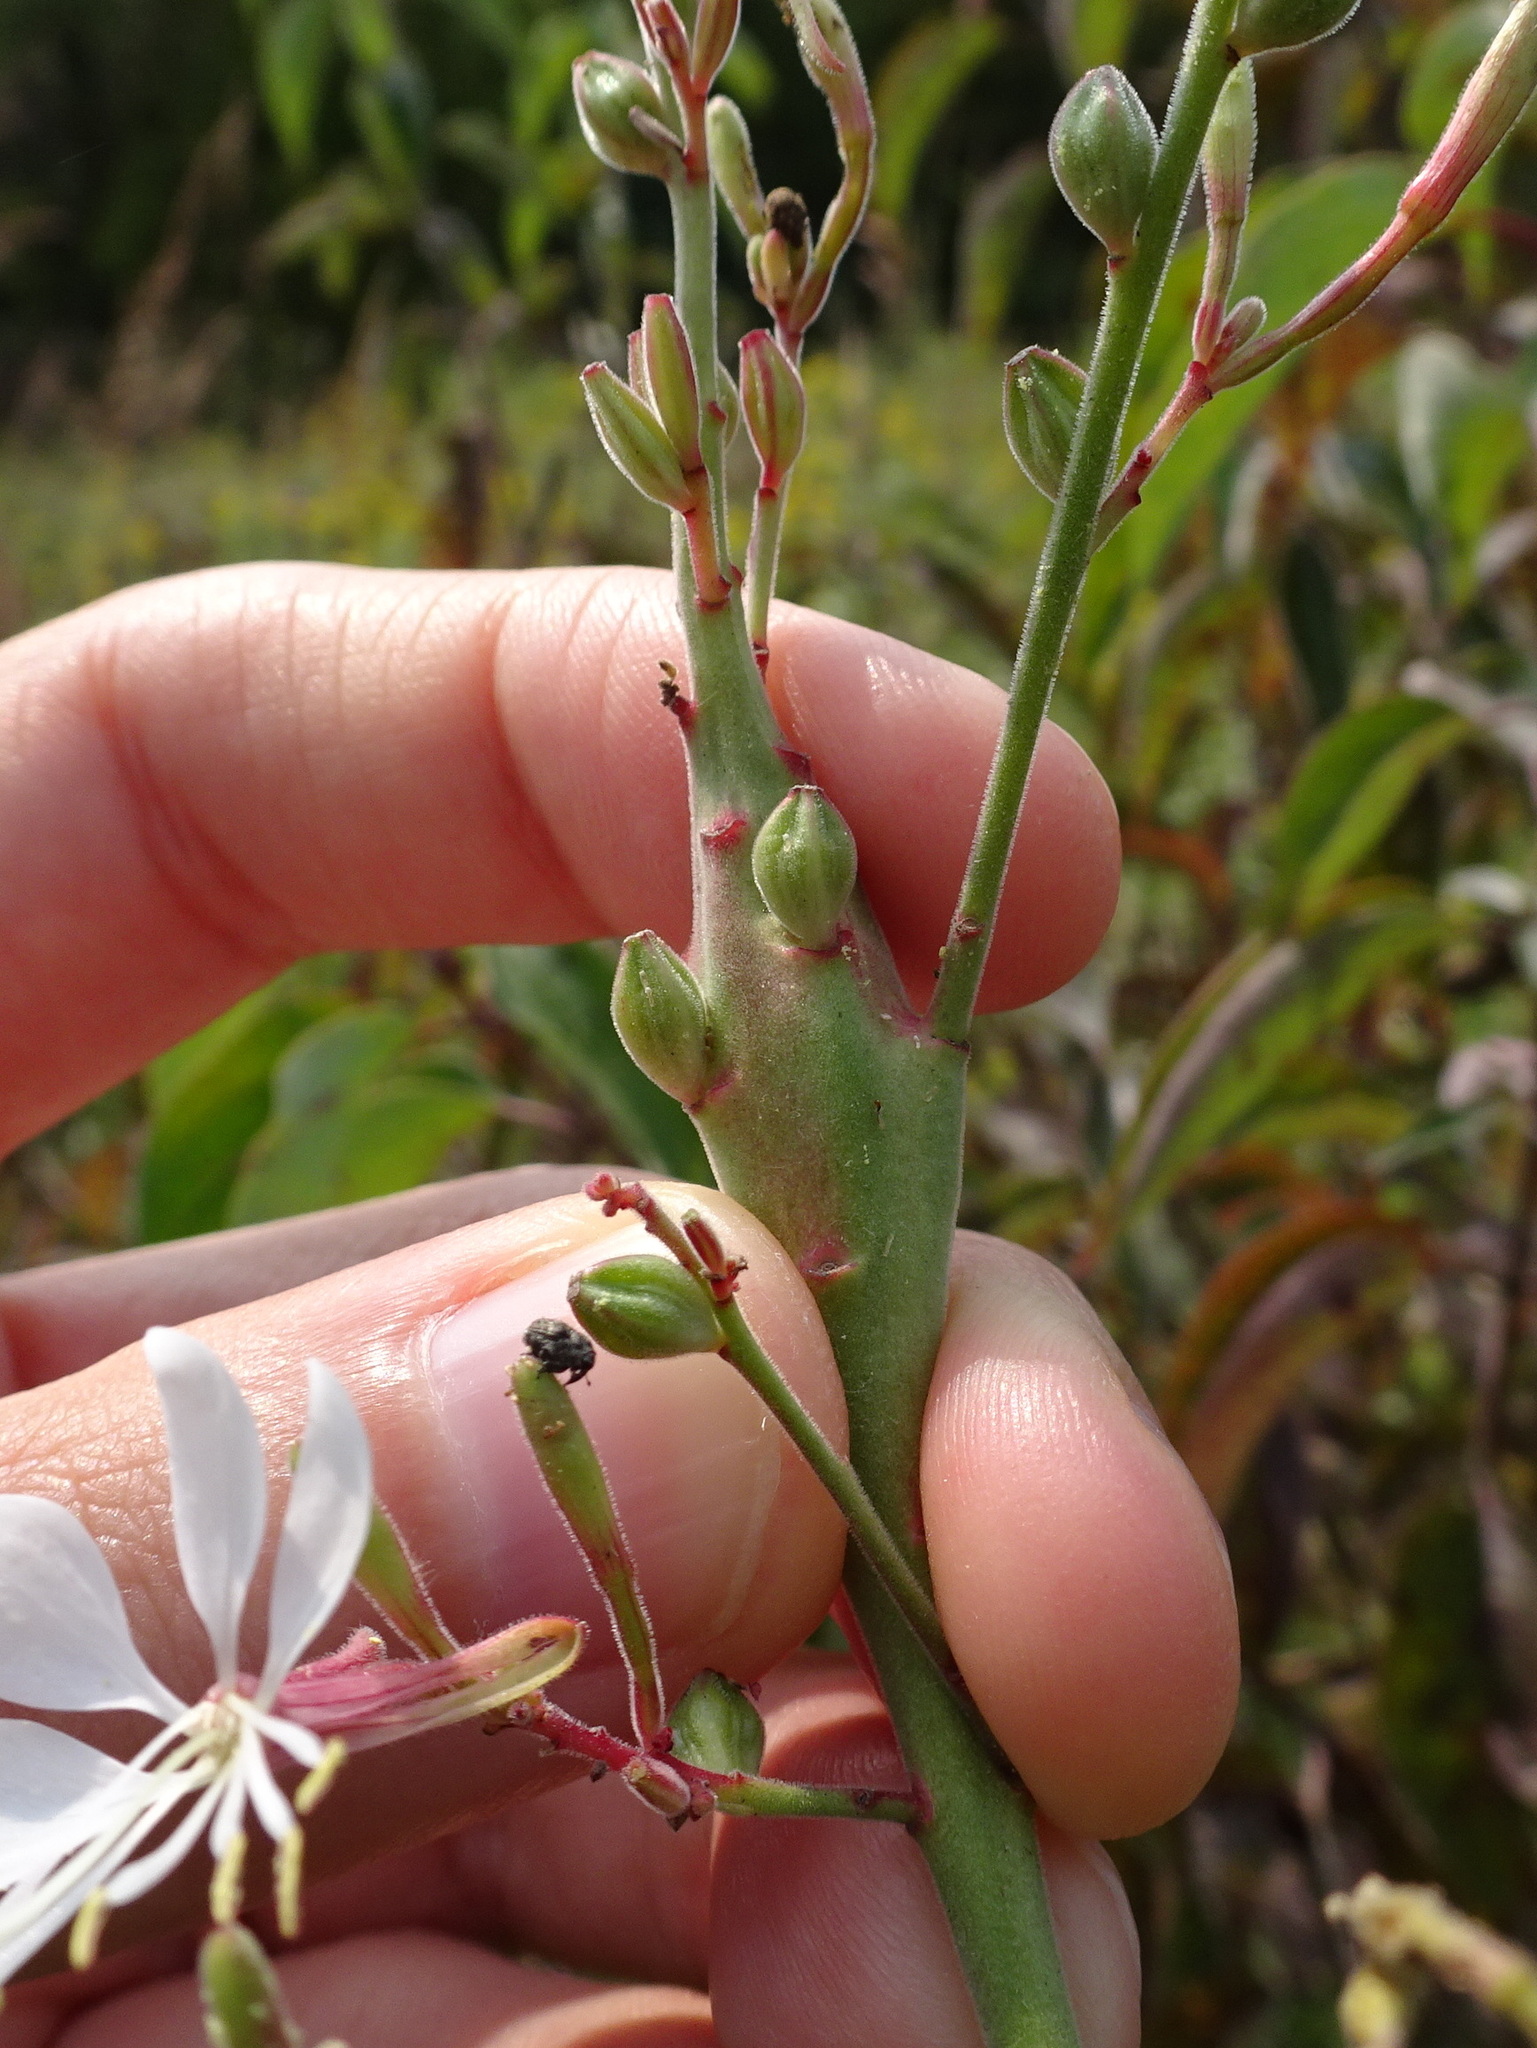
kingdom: Animalia
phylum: Arthropoda
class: Insecta
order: Lepidoptera
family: Momphidae
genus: Mompha
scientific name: Mompha rufocristatella
